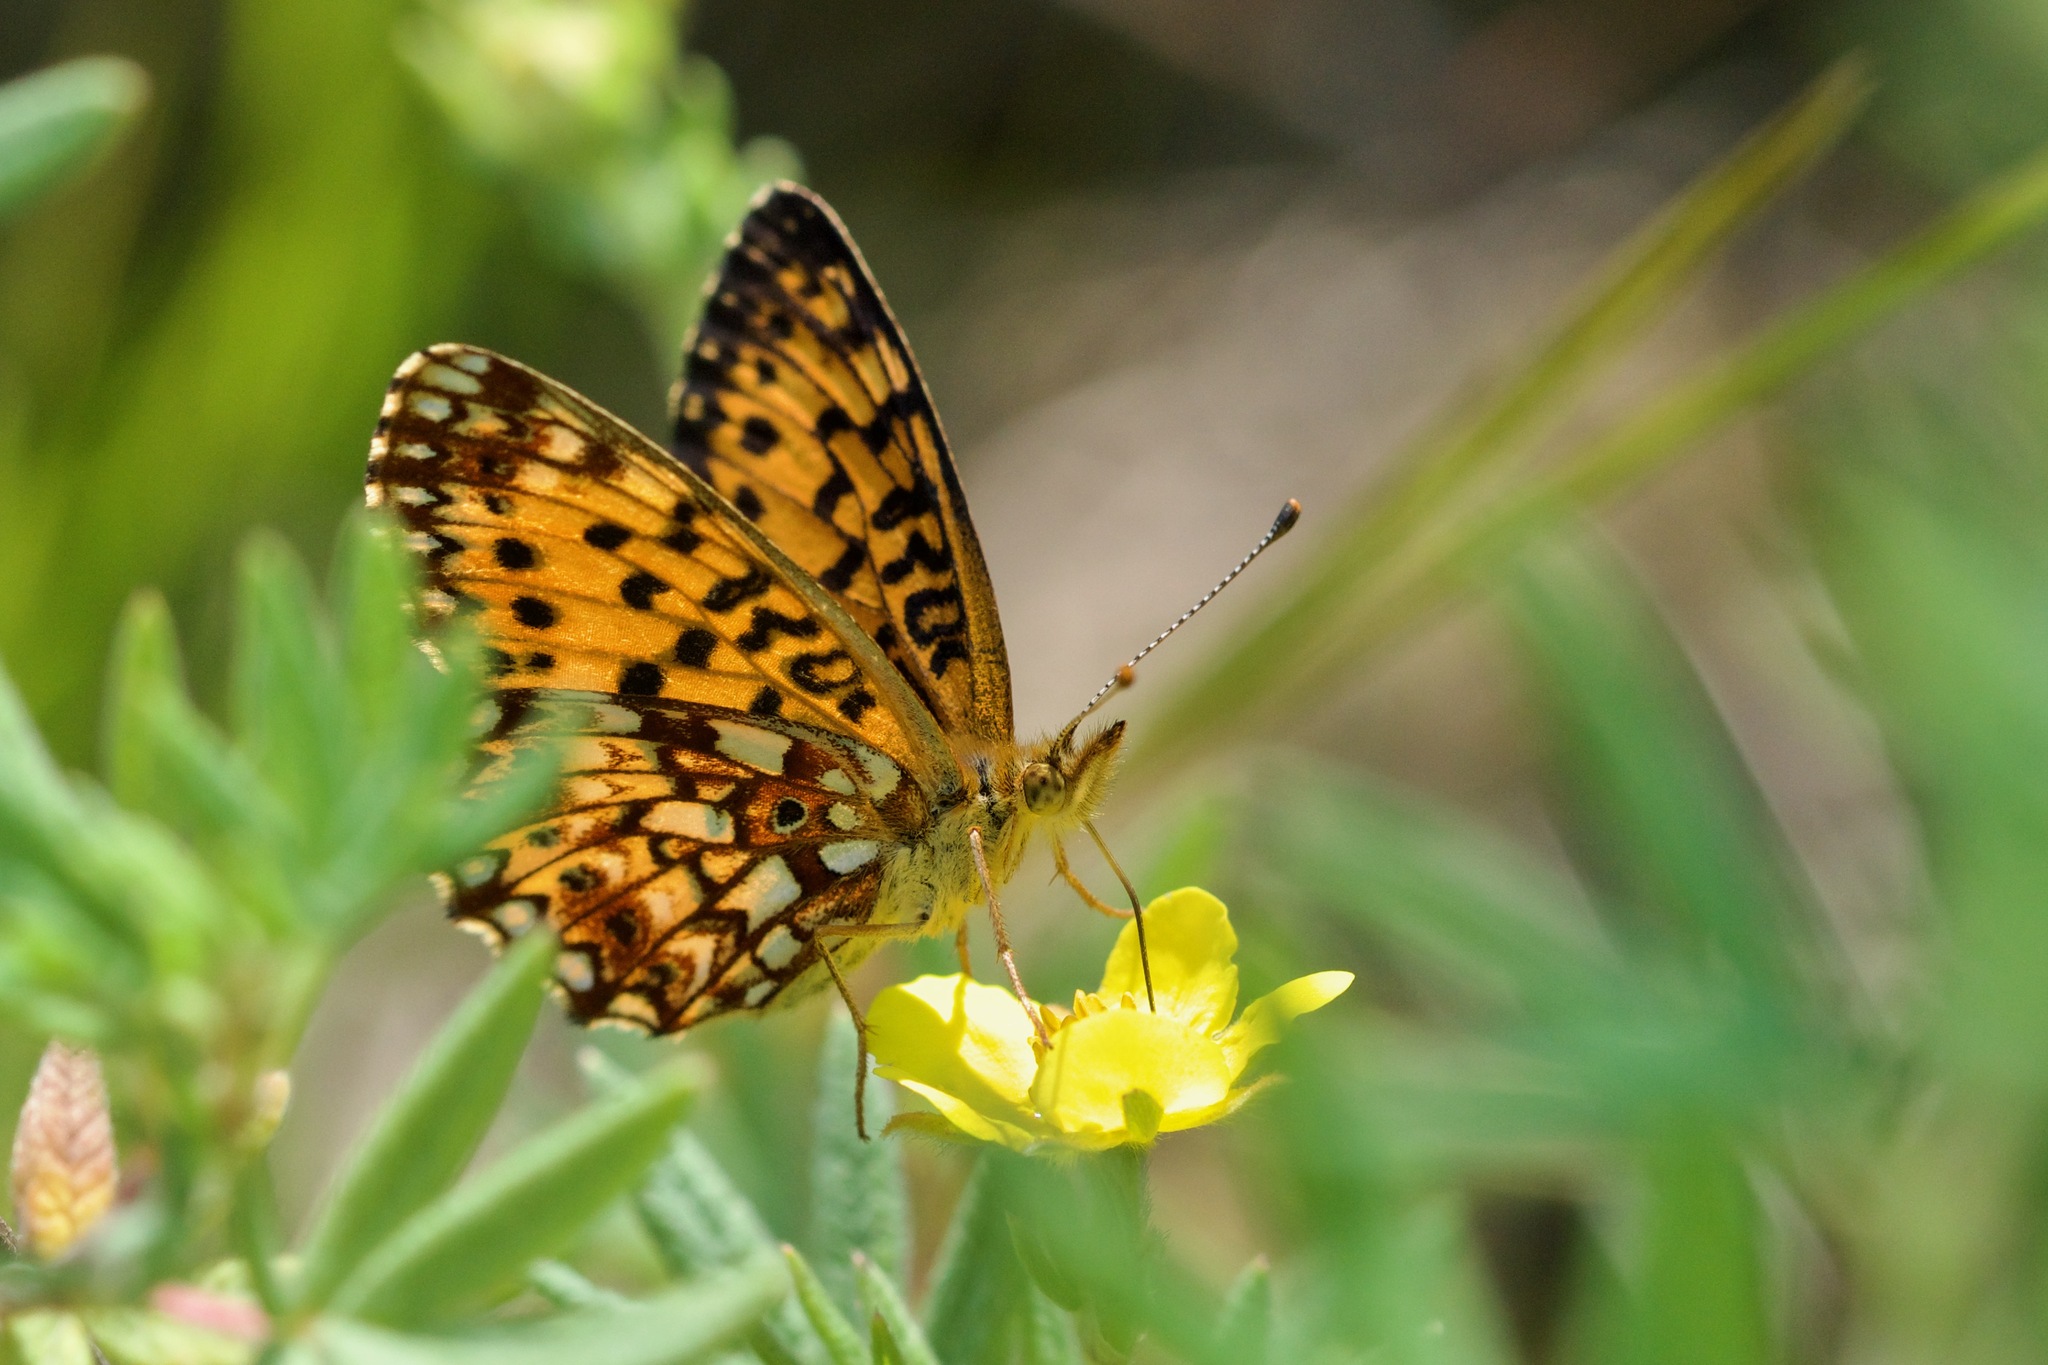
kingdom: Animalia
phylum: Arthropoda
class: Insecta
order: Lepidoptera
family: Nymphalidae
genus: Boloria
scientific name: Boloria
